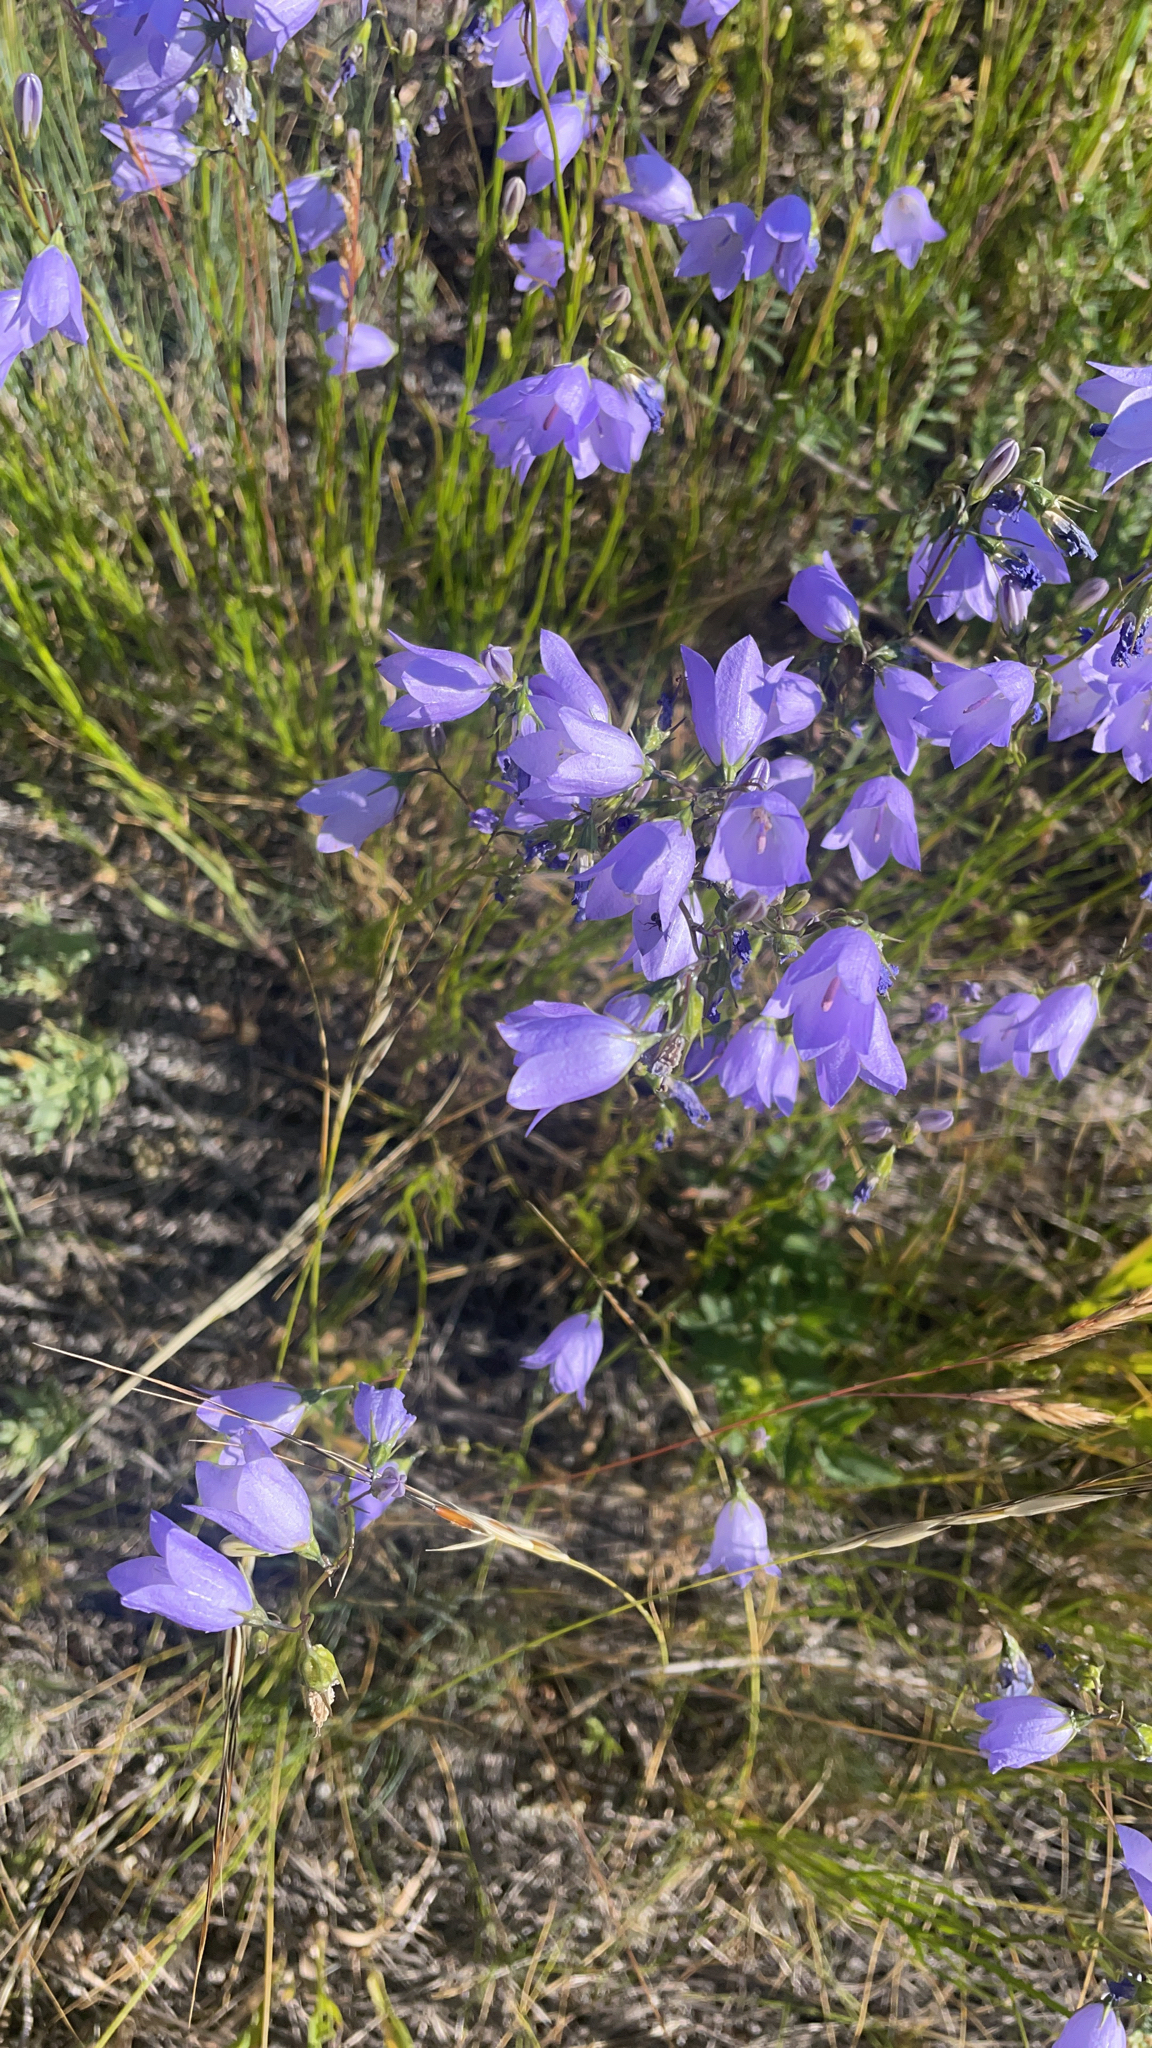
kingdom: Plantae
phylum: Tracheophyta
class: Magnoliopsida
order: Asterales
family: Campanulaceae
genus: Campanula
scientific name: Campanula alaskana
